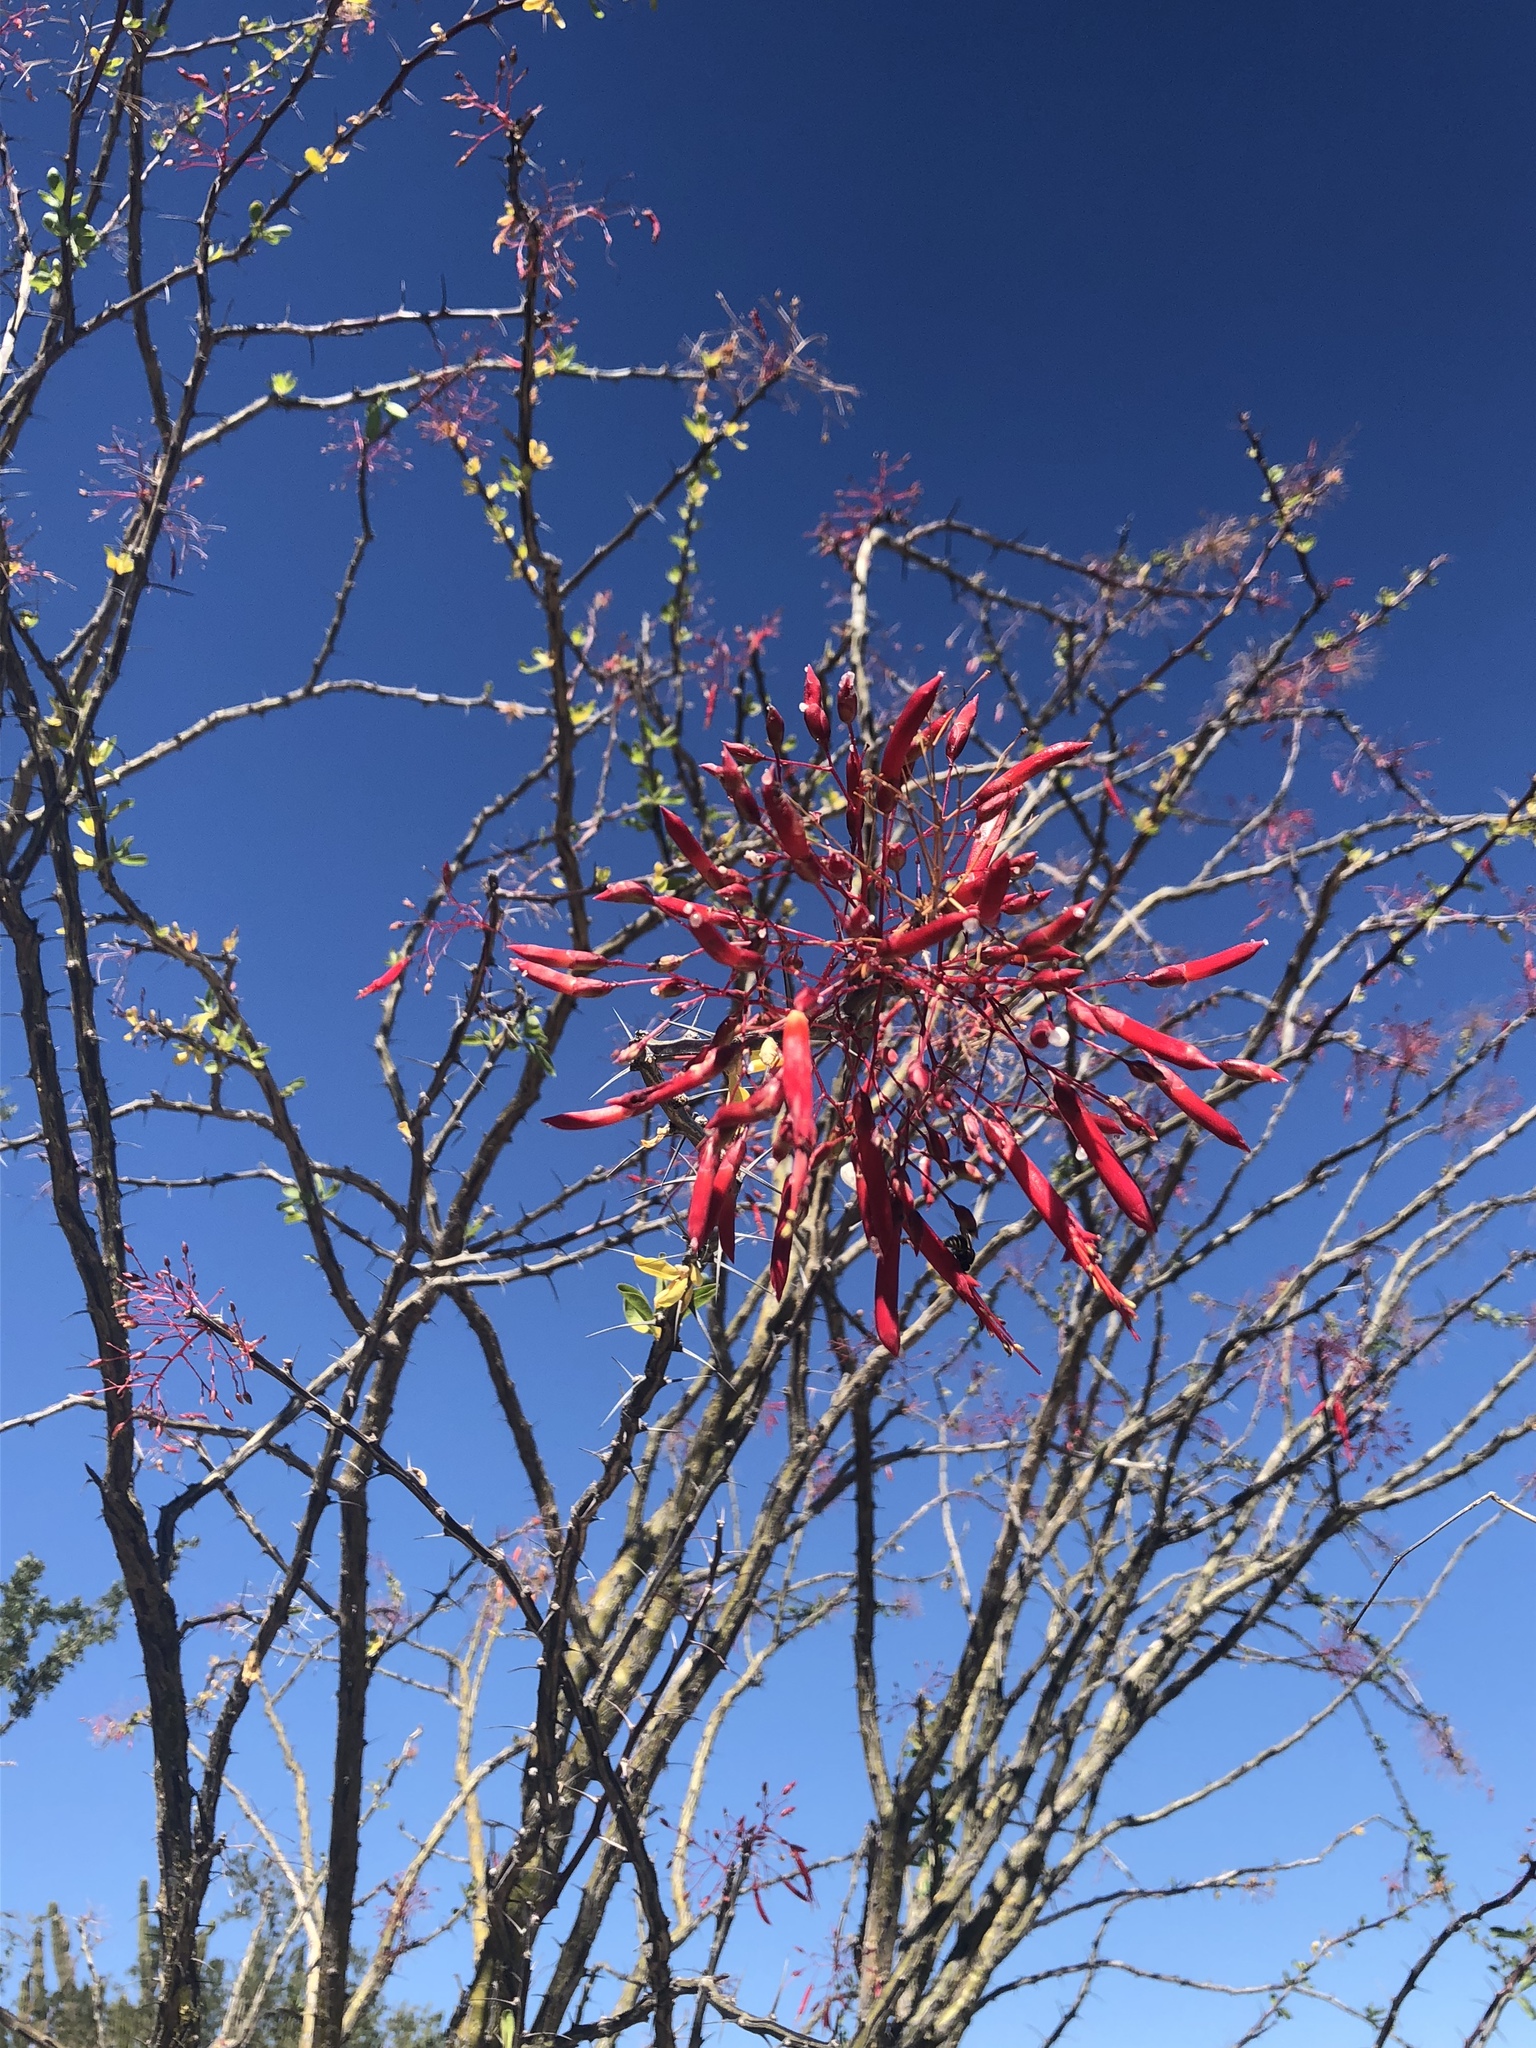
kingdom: Plantae
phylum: Tracheophyta
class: Magnoliopsida
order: Ericales
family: Fouquieriaceae
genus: Fouquieria
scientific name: Fouquieria macdougalii
